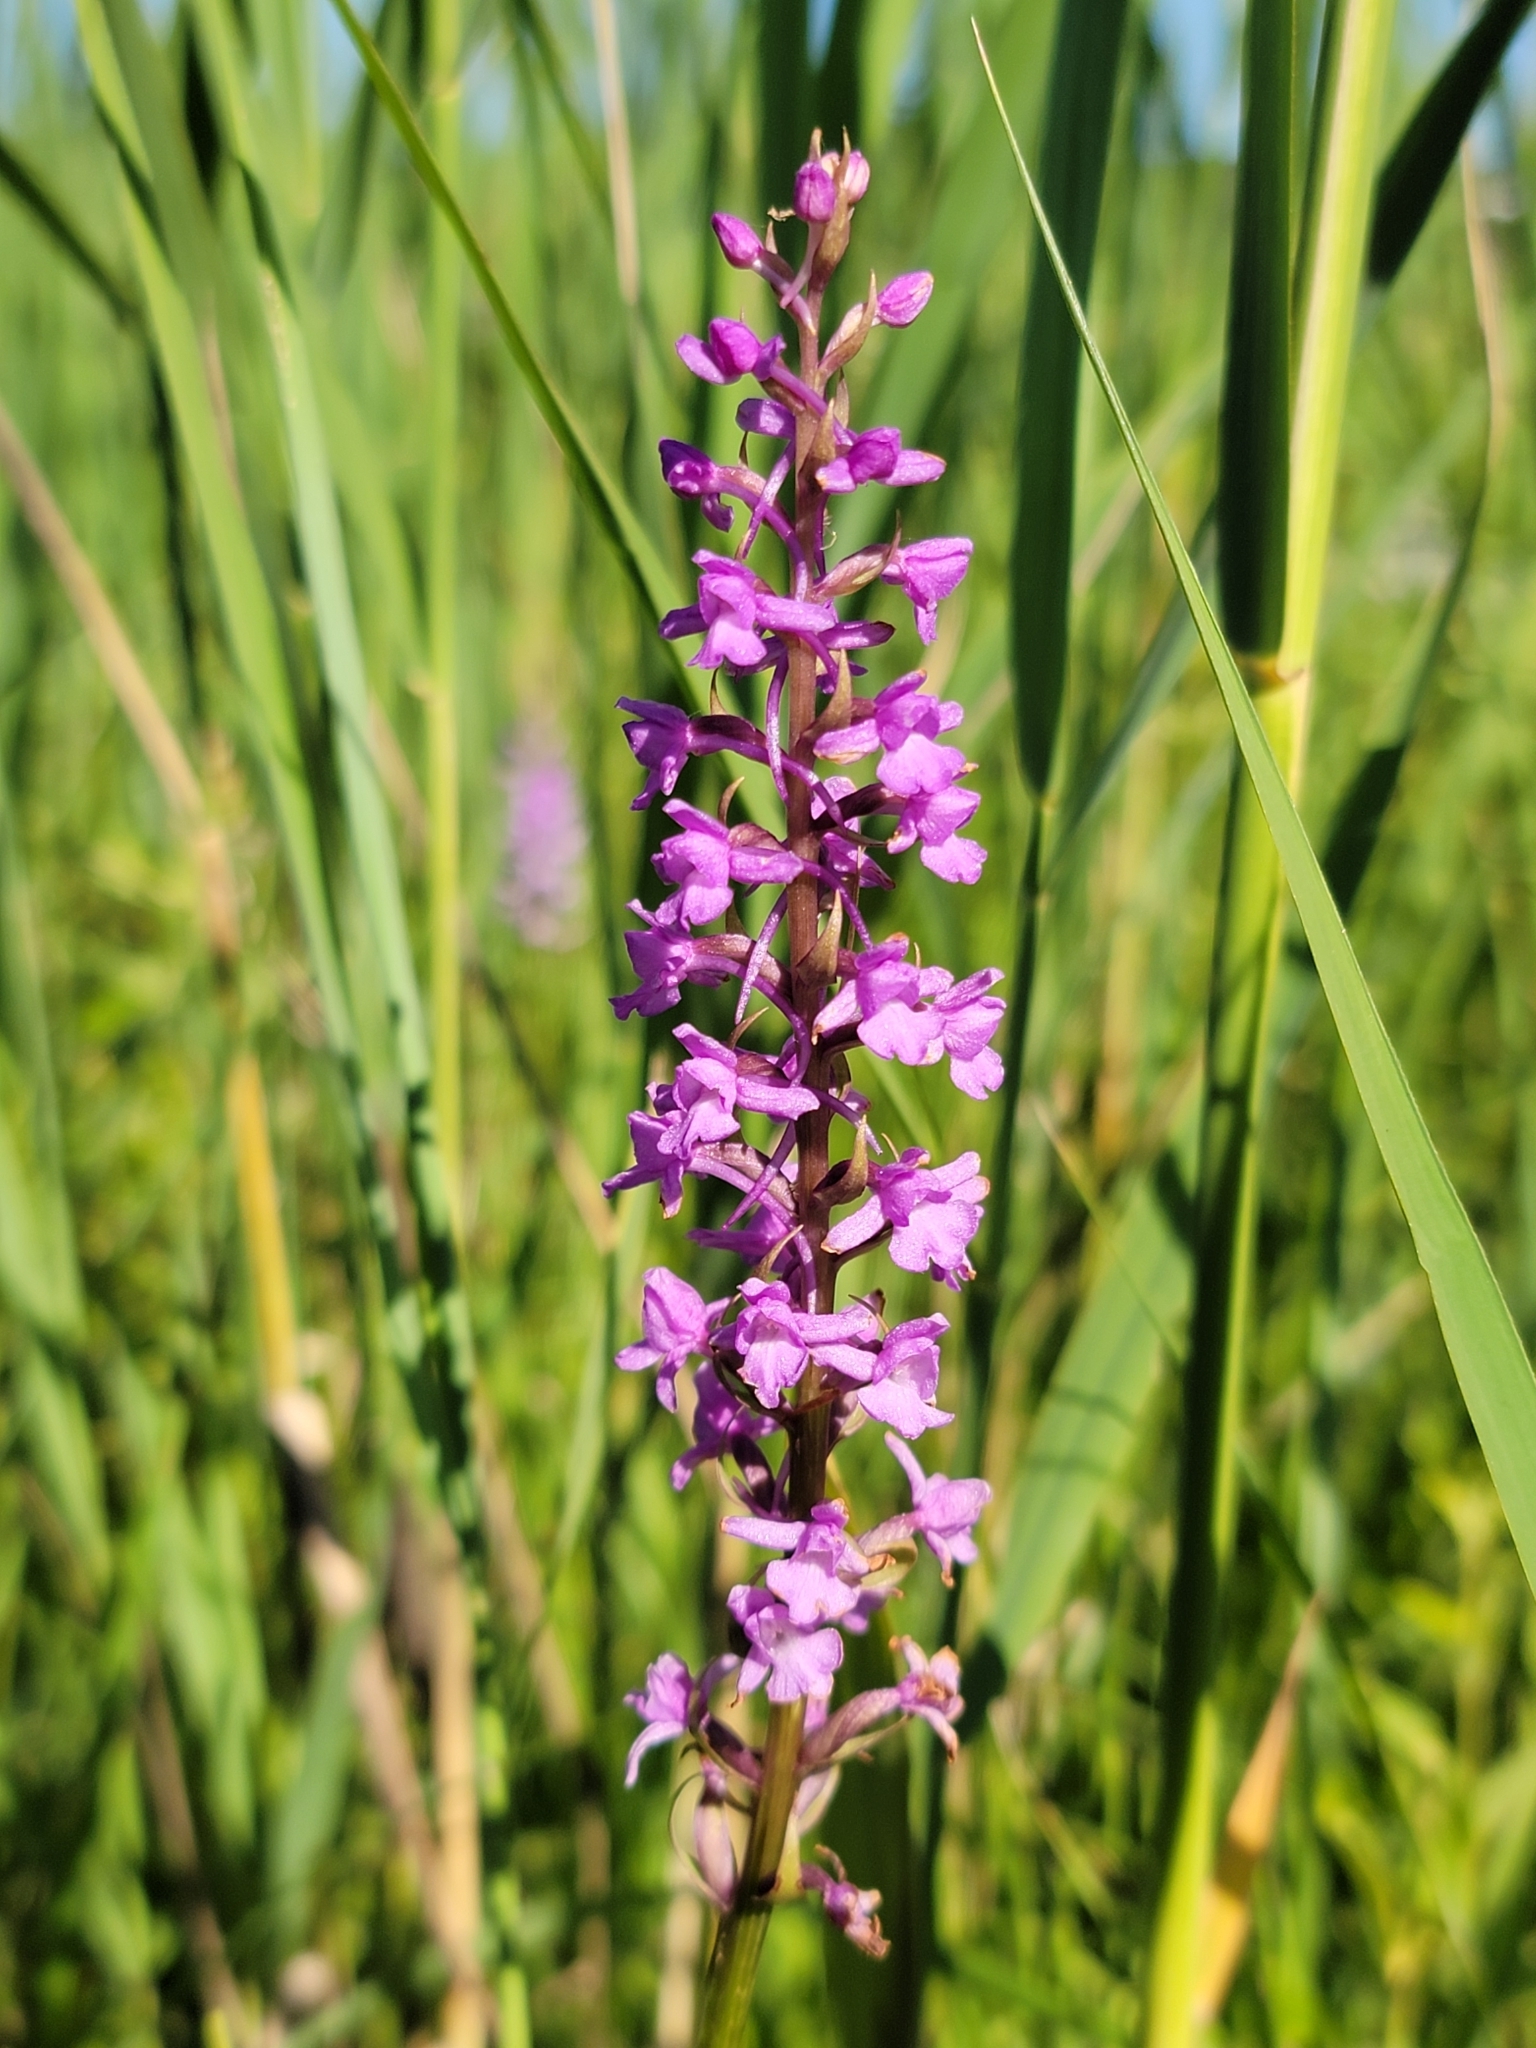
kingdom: Plantae
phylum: Tracheophyta
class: Liliopsida
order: Asparagales
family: Orchidaceae
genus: Gymnadenia
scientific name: Gymnadenia conopsea
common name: Fragrant orchid
